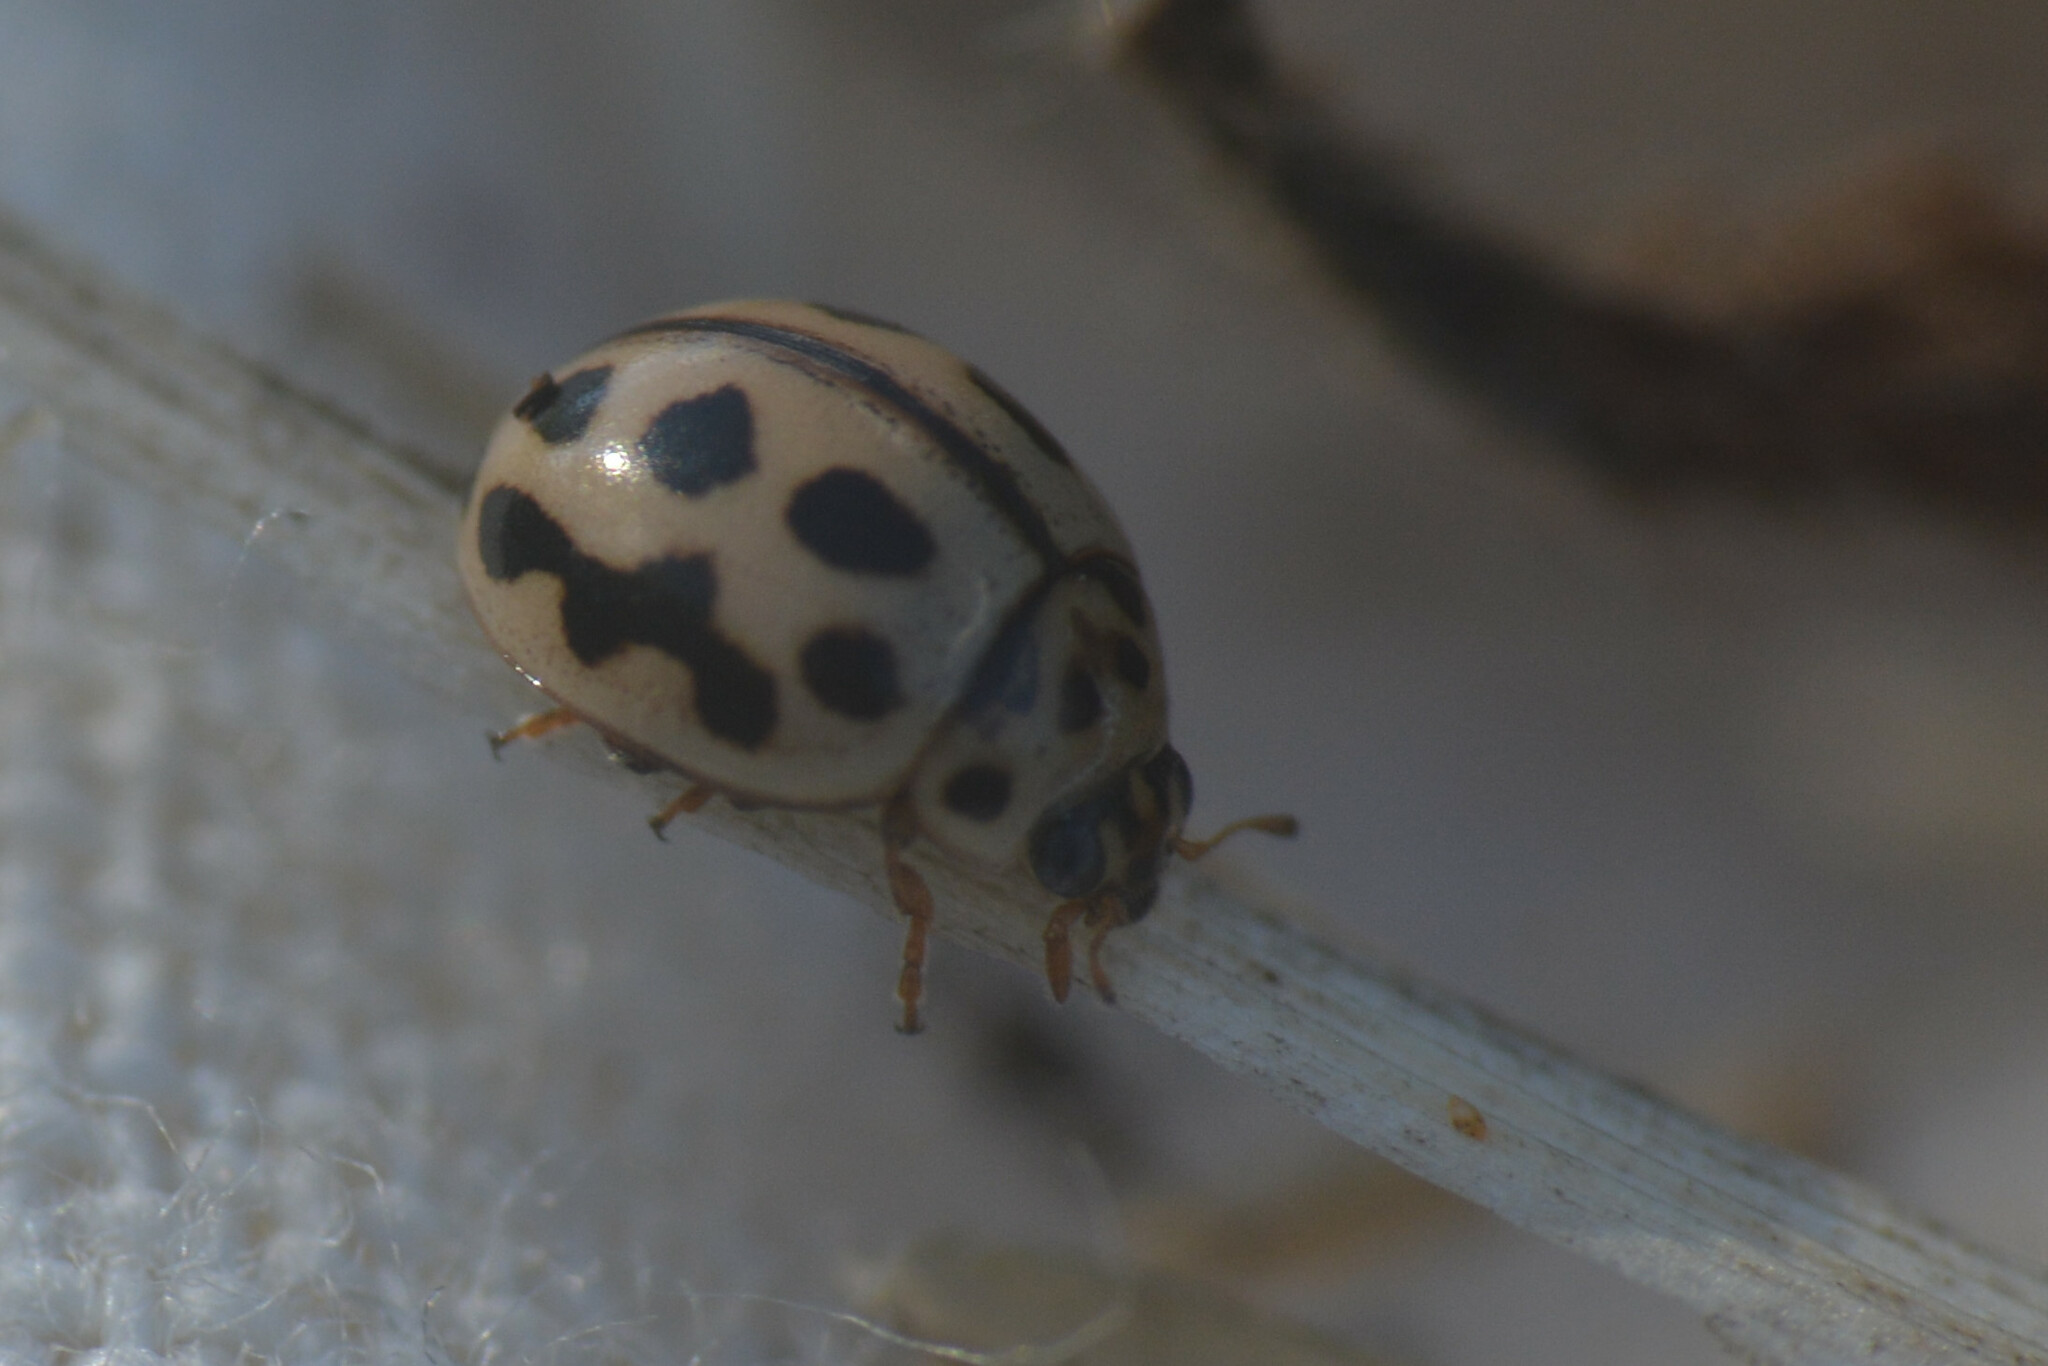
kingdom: Animalia
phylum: Arthropoda
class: Insecta
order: Coleoptera
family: Coccinellidae
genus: Tytthaspis
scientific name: Tytthaspis sedecimpunctata
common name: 16-spot ladybird
